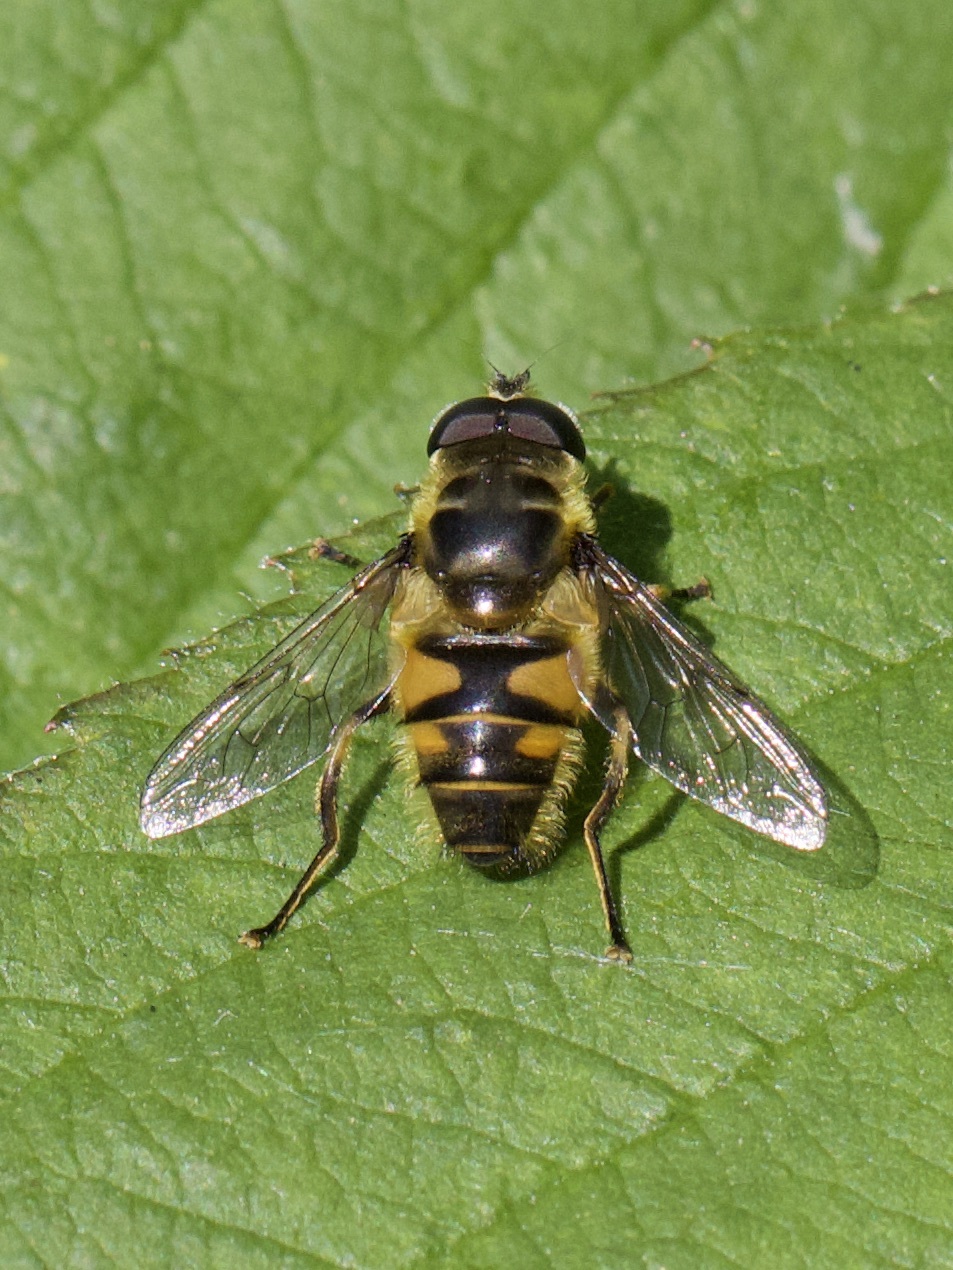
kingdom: Animalia
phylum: Arthropoda
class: Insecta
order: Diptera
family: Syrphidae
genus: Myathropa
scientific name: Myathropa florea
